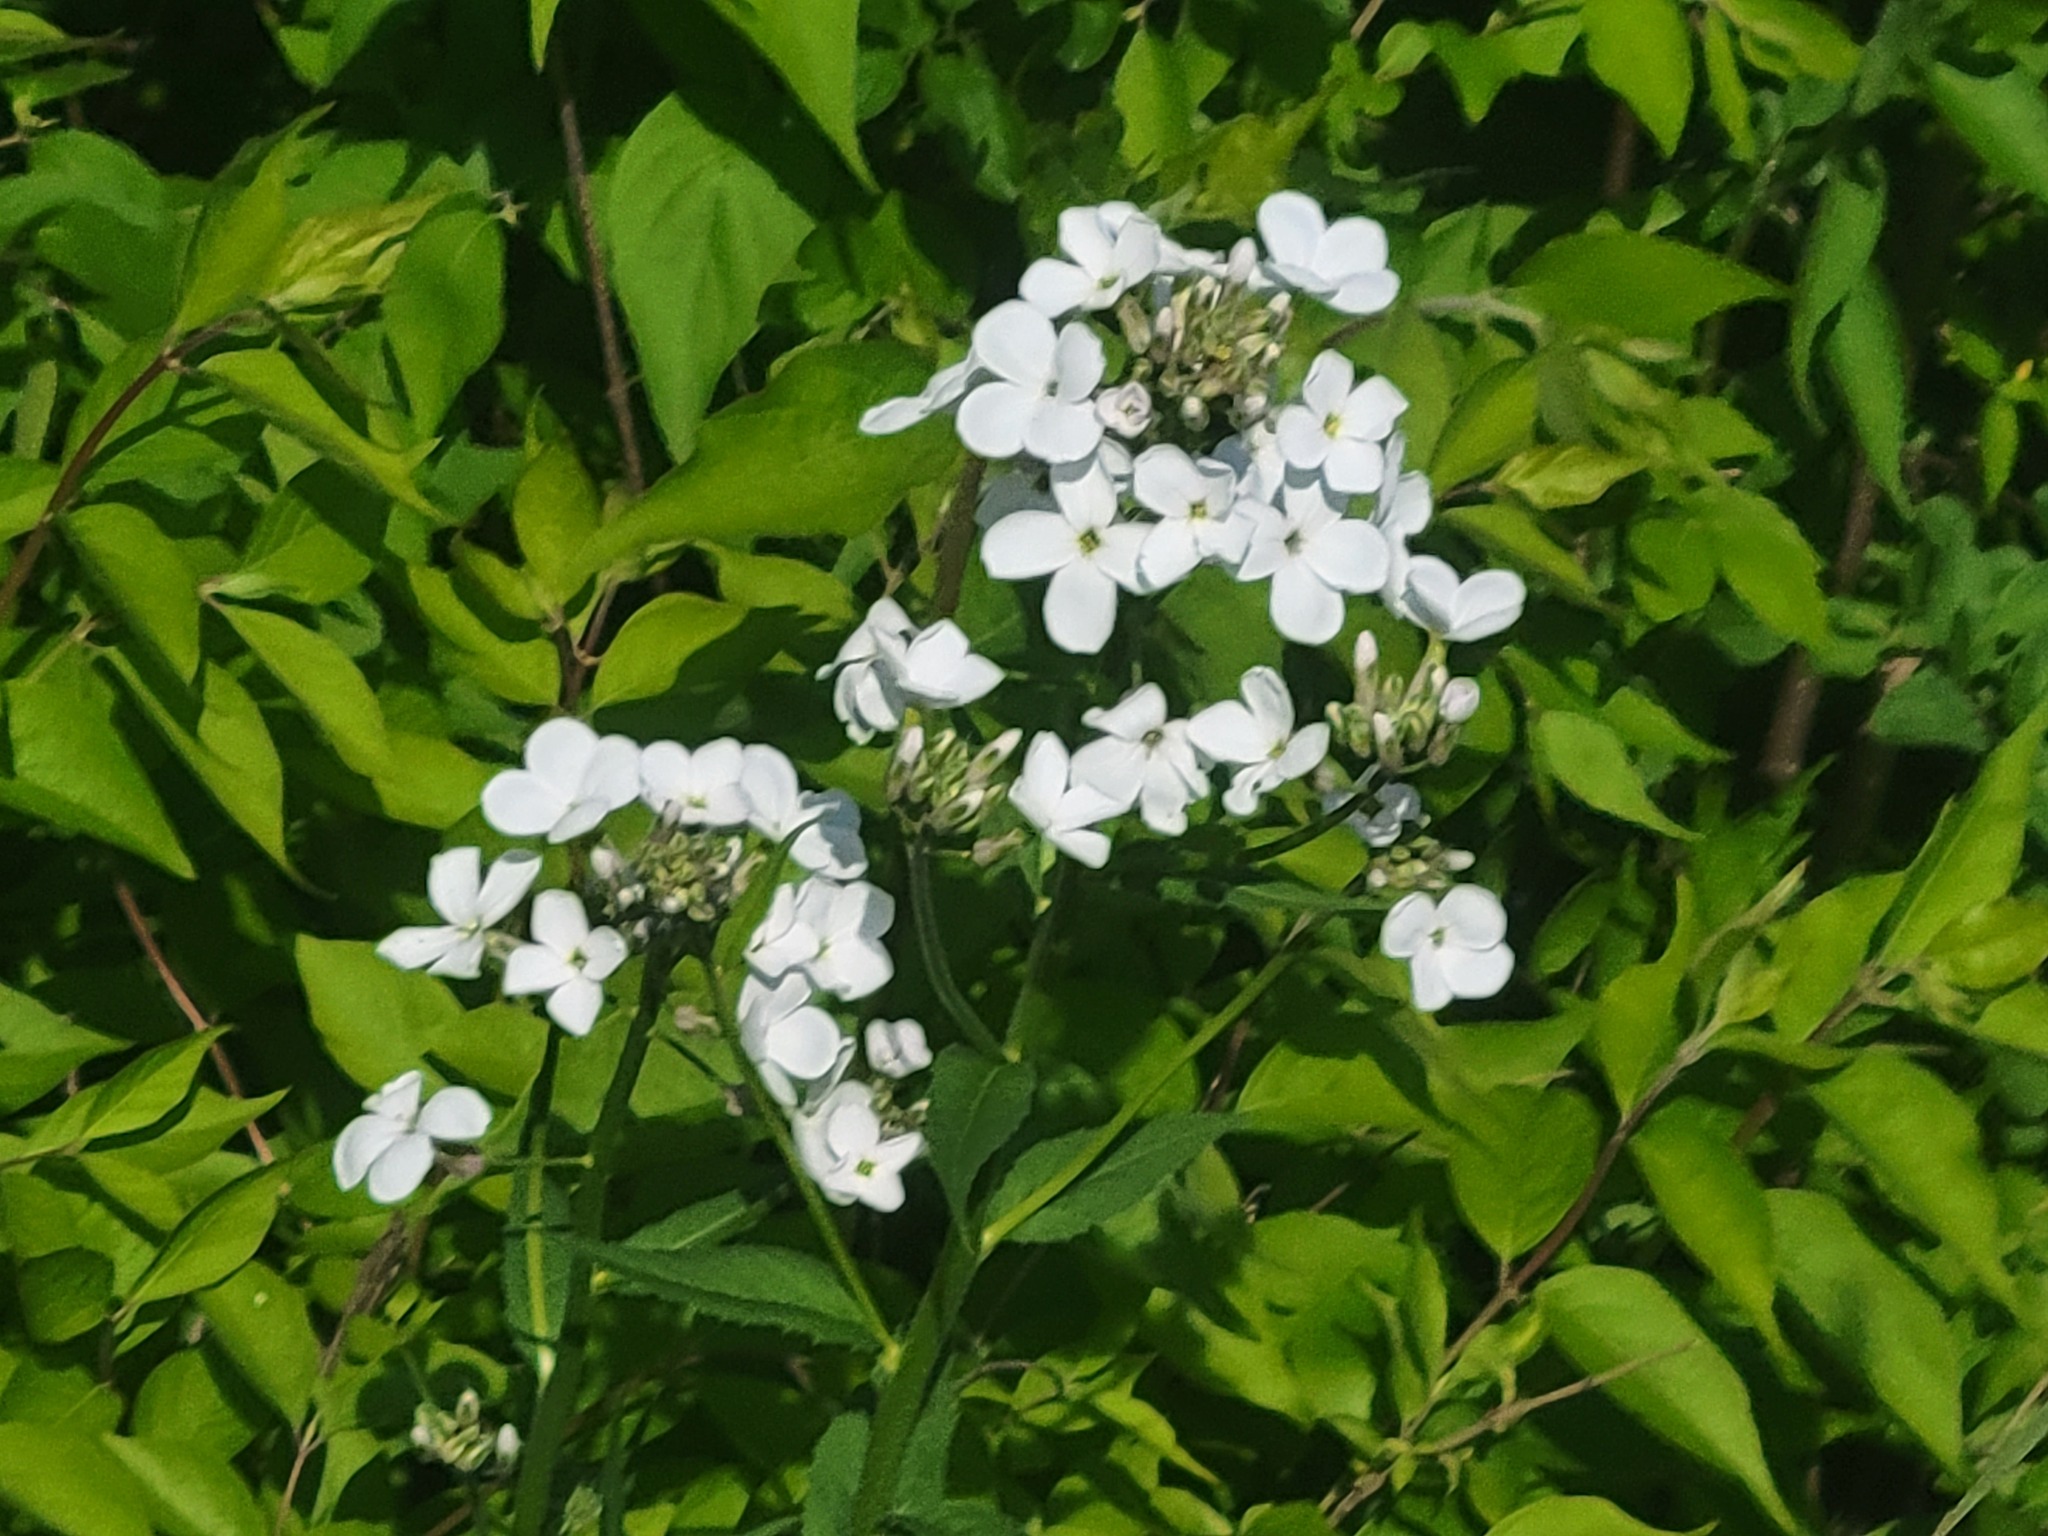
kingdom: Plantae
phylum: Tracheophyta
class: Magnoliopsida
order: Brassicales
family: Brassicaceae
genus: Hesperis
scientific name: Hesperis matronalis
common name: Dame's-violet
